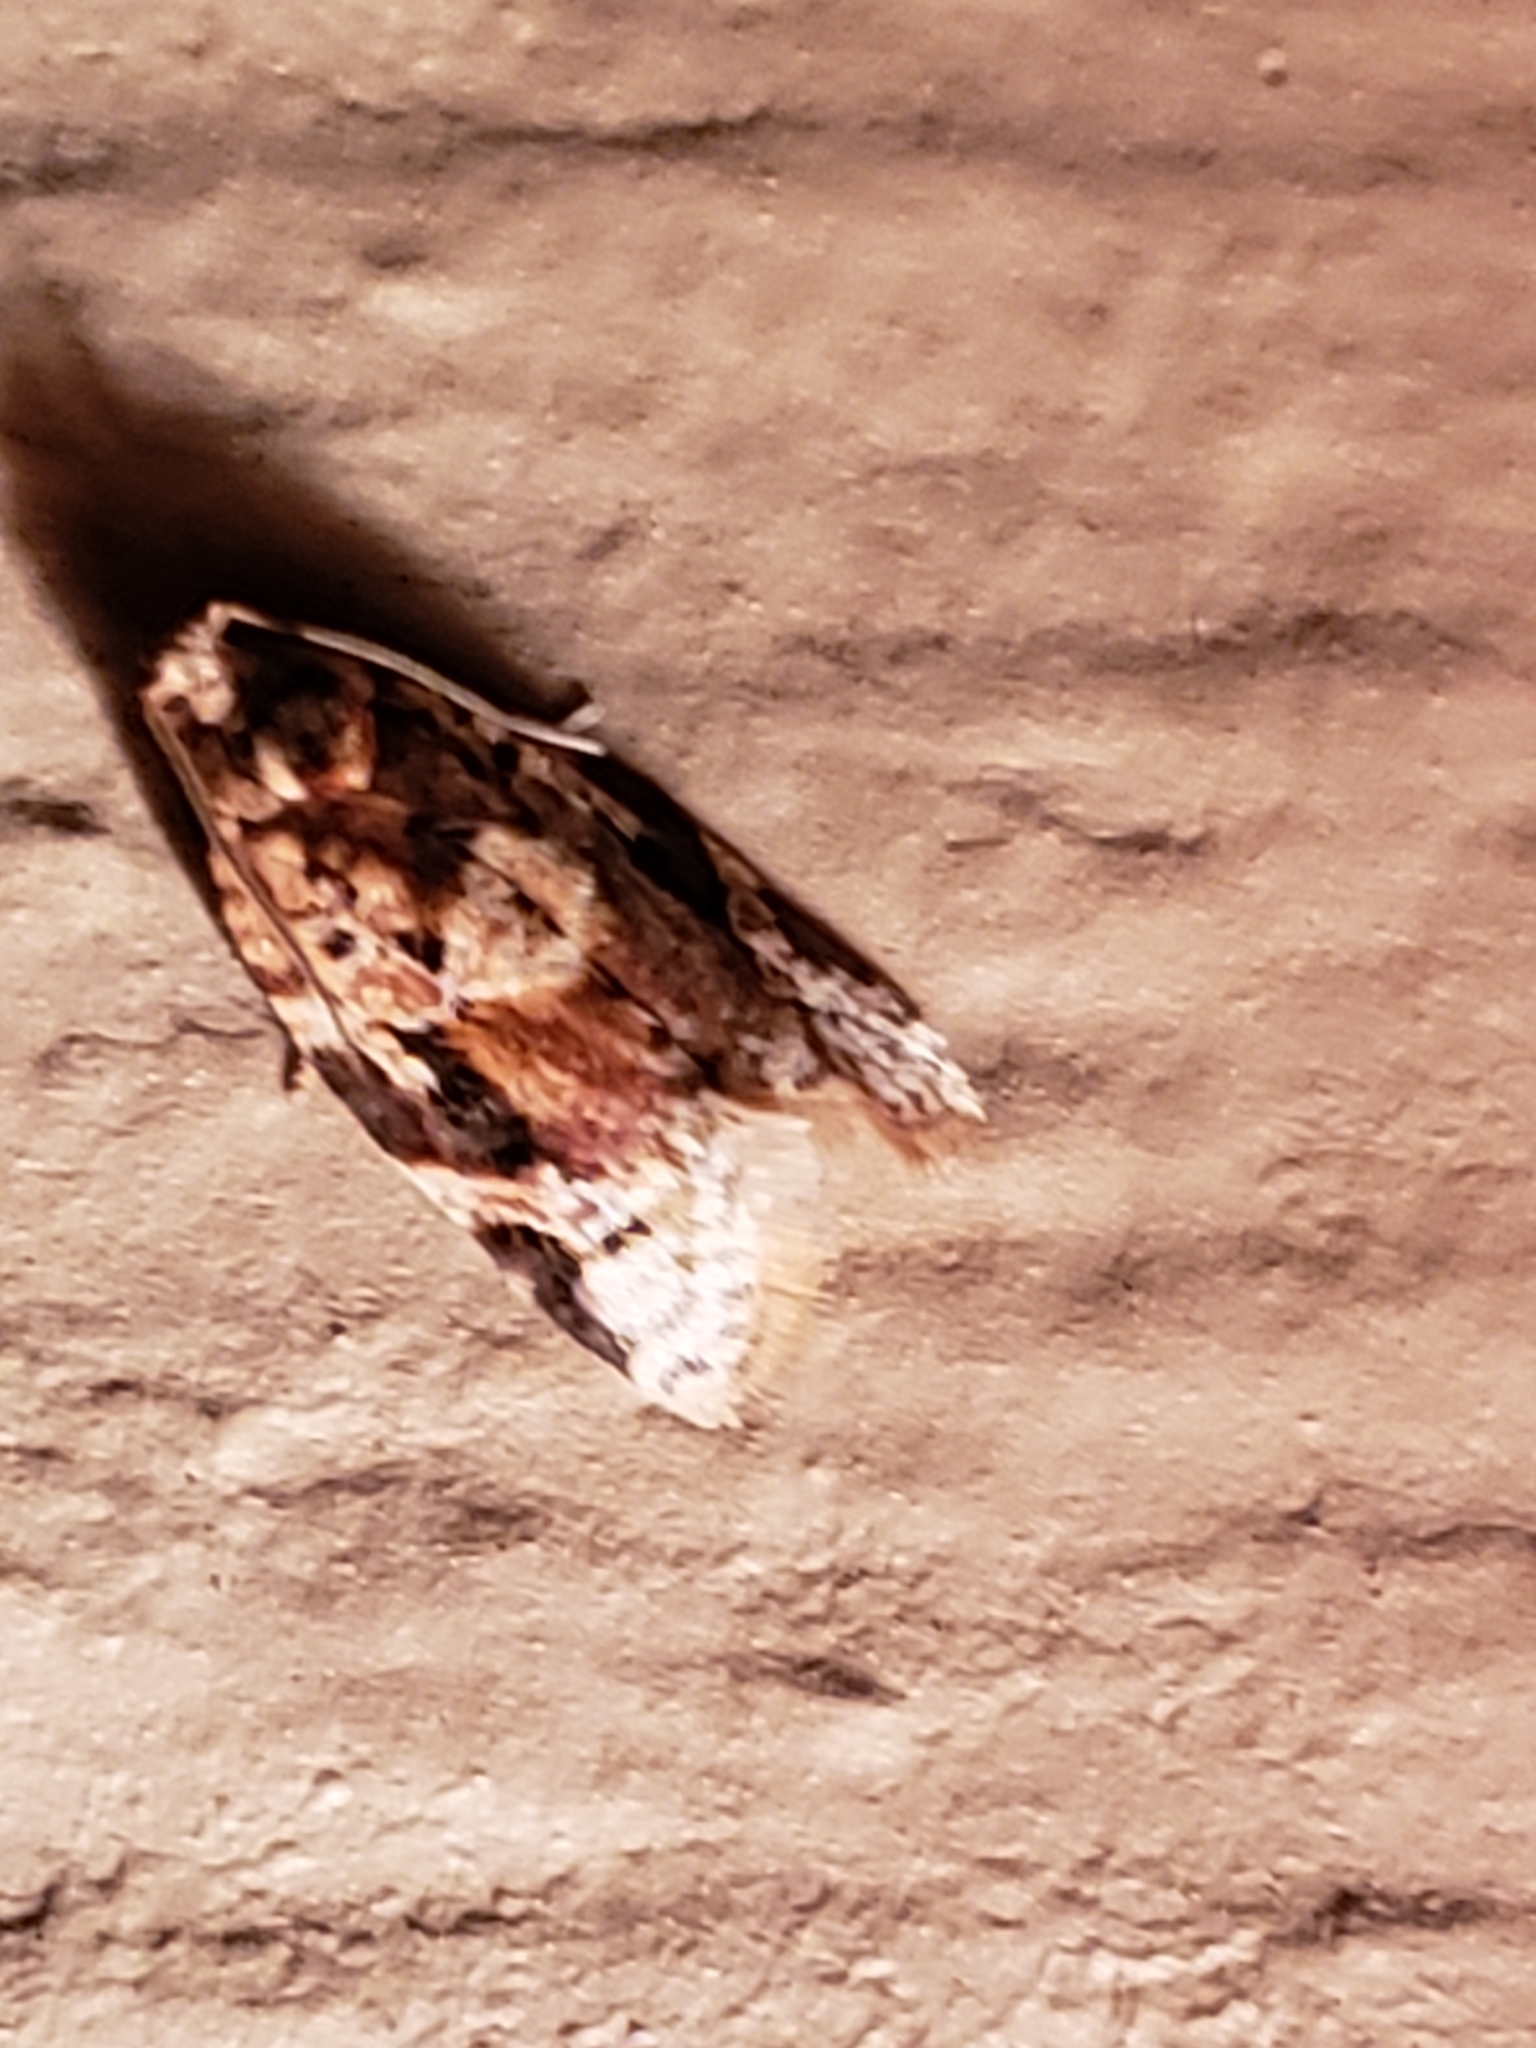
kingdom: Animalia
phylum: Arthropoda
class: Insecta
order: Lepidoptera
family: Tortricidae
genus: Argyrotaenia
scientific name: Argyrotaenia velutinana
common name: Red-banded leafroller moth
